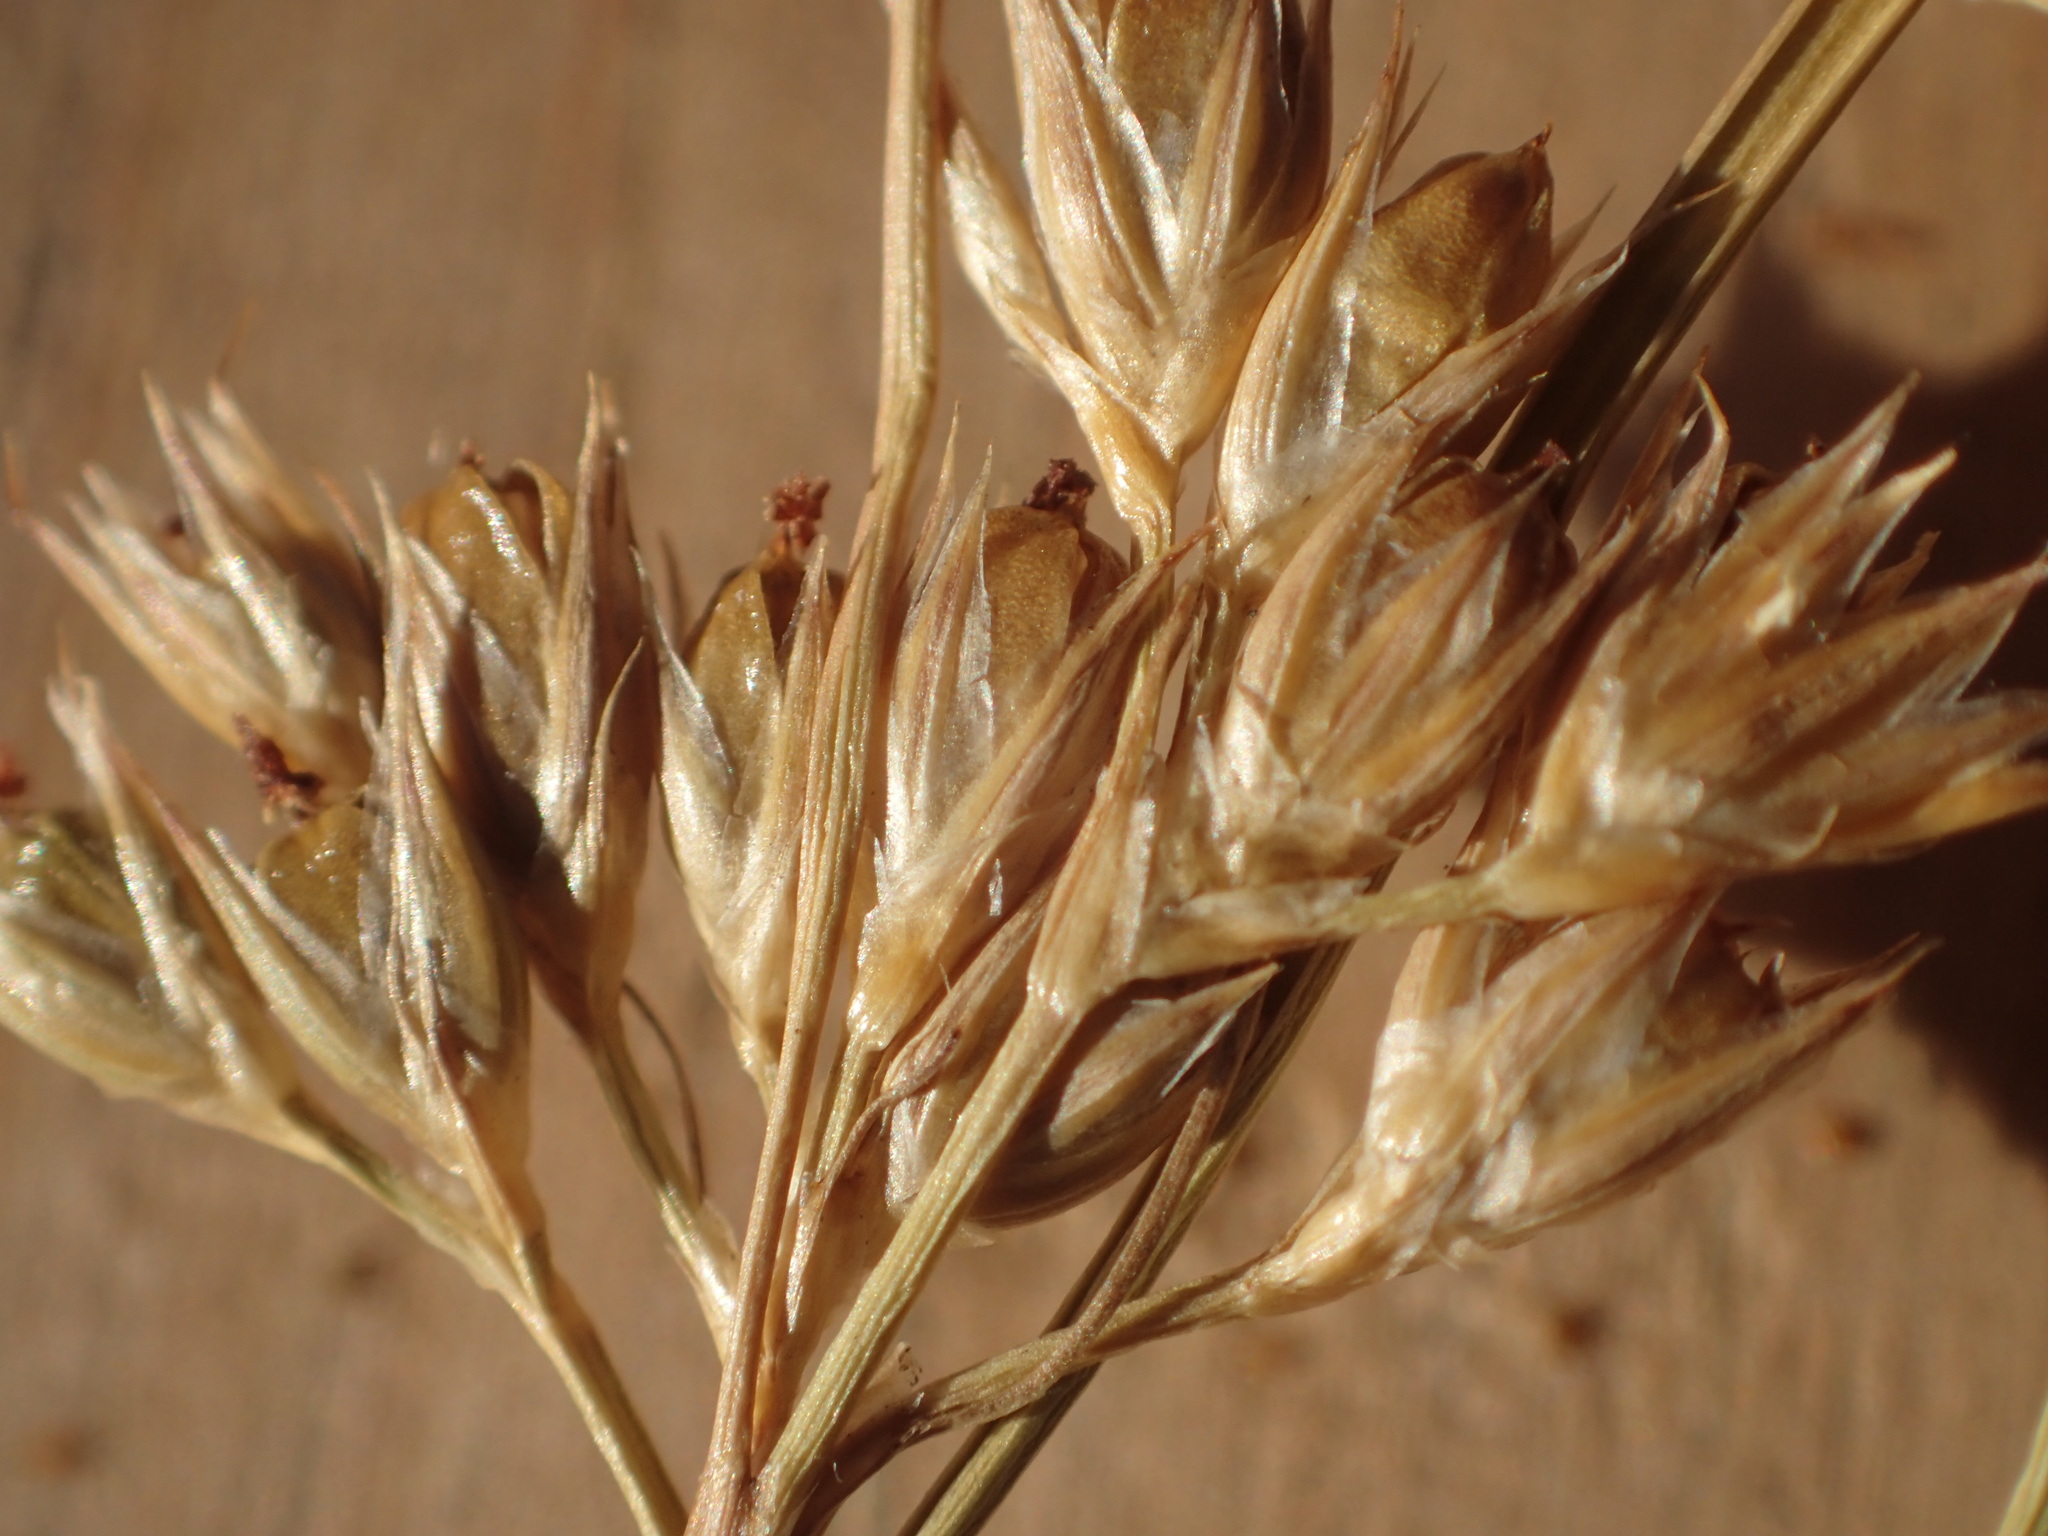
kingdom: Plantae
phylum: Tracheophyta
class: Liliopsida
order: Poales
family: Juncaceae
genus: Juncus
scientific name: Juncus interior
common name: Interior rush
